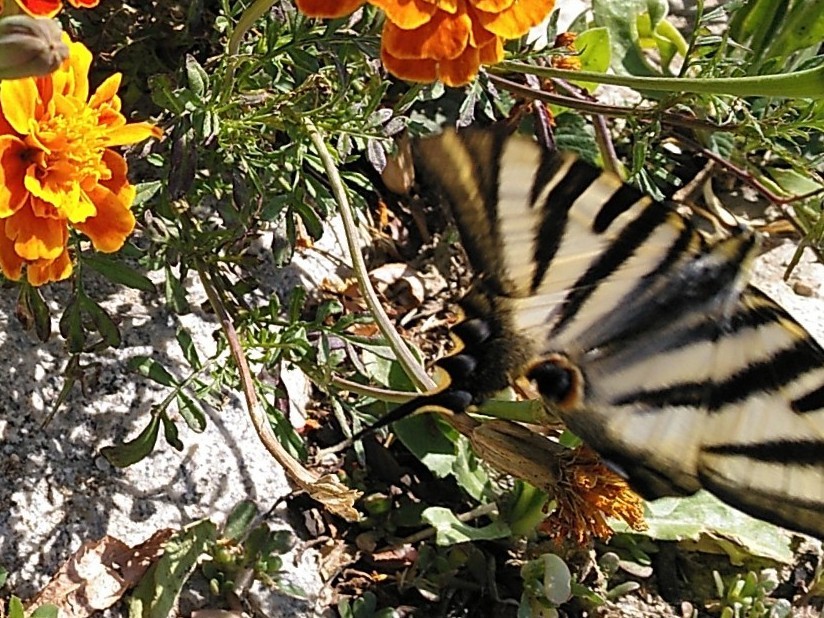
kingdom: Animalia
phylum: Arthropoda
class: Insecta
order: Lepidoptera
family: Papilionidae
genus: Iphiclides
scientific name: Iphiclides feisthamelii
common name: Iberian scarce swallowtail
